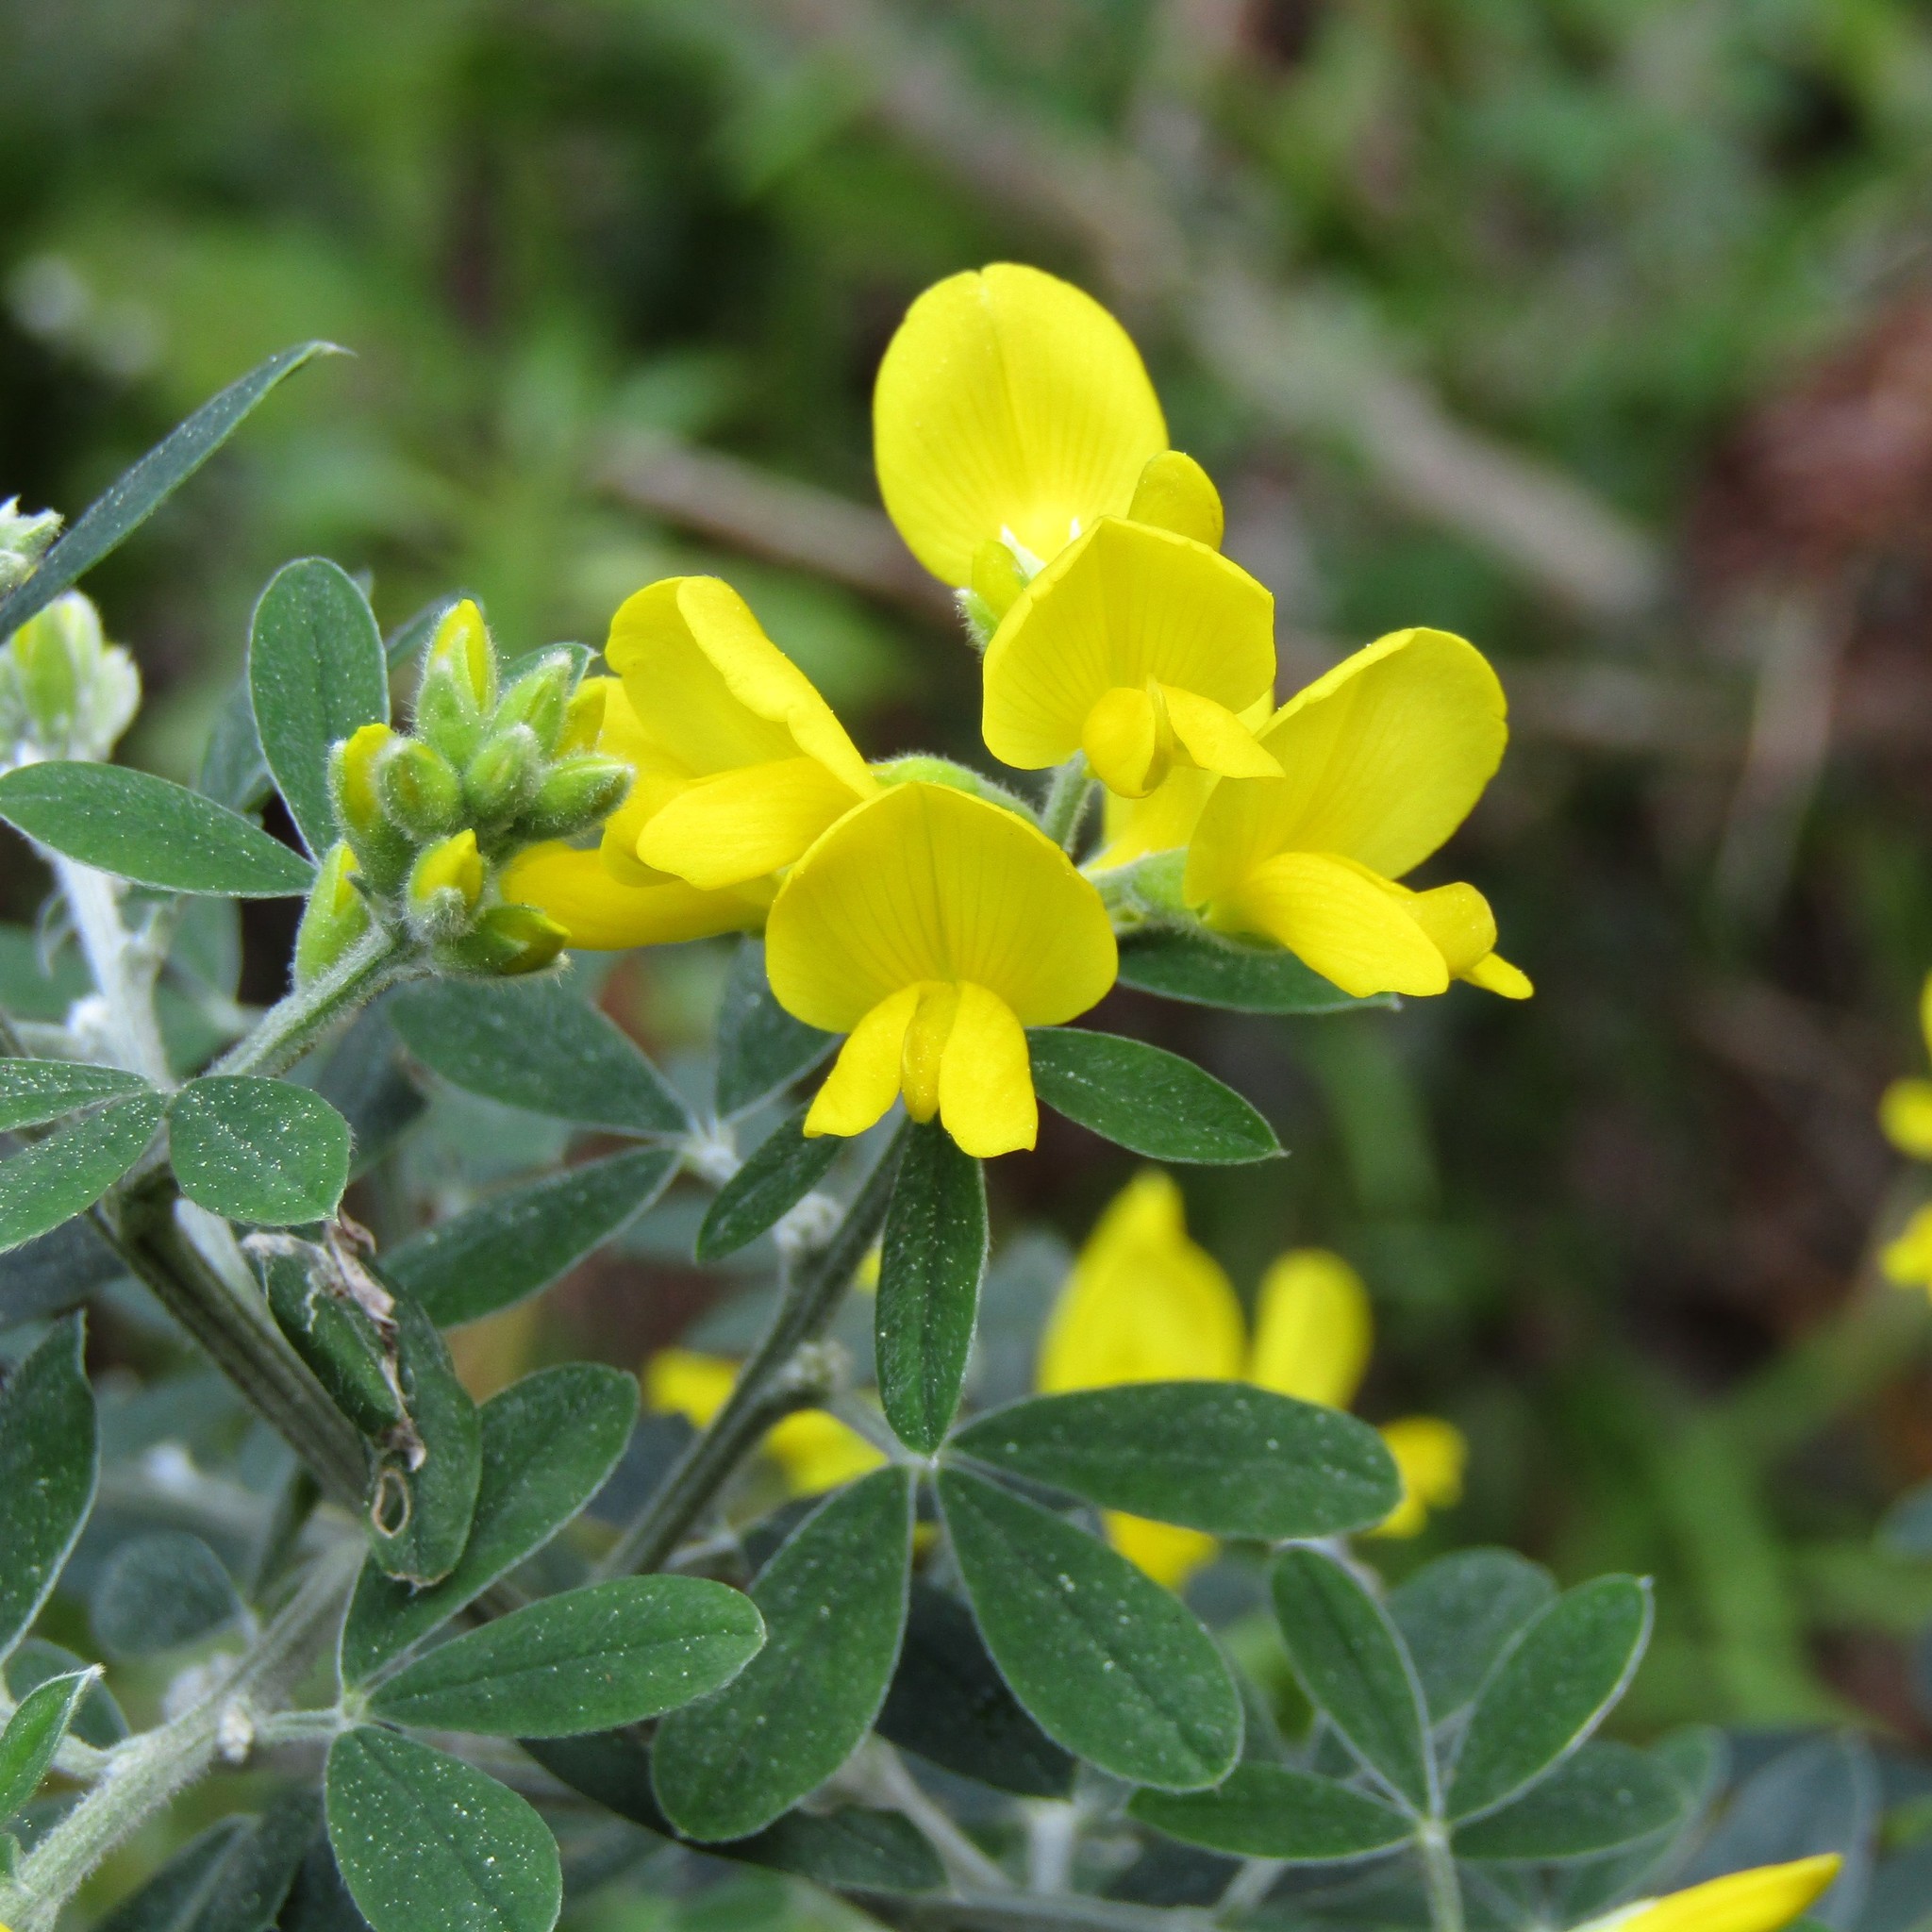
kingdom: Plantae
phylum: Tracheophyta
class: Magnoliopsida
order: Fabales
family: Fabaceae
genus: Genista
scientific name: Genista monspessulana
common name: Montpellier broom
